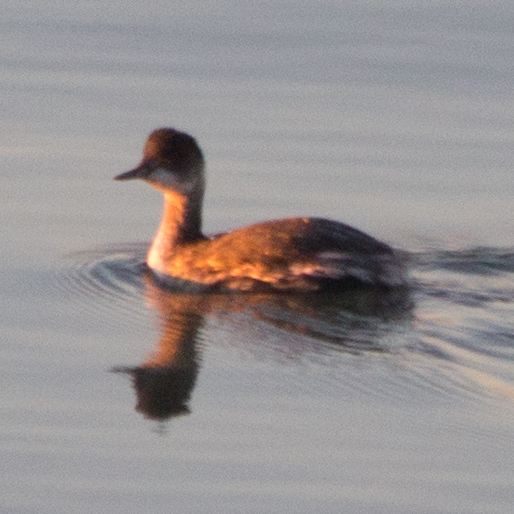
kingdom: Animalia
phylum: Chordata
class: Aves
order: Podicipediformes
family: Podicipedidae
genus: Podiceps
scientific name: Podiceps nigricollis
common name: Black-necked grebe
